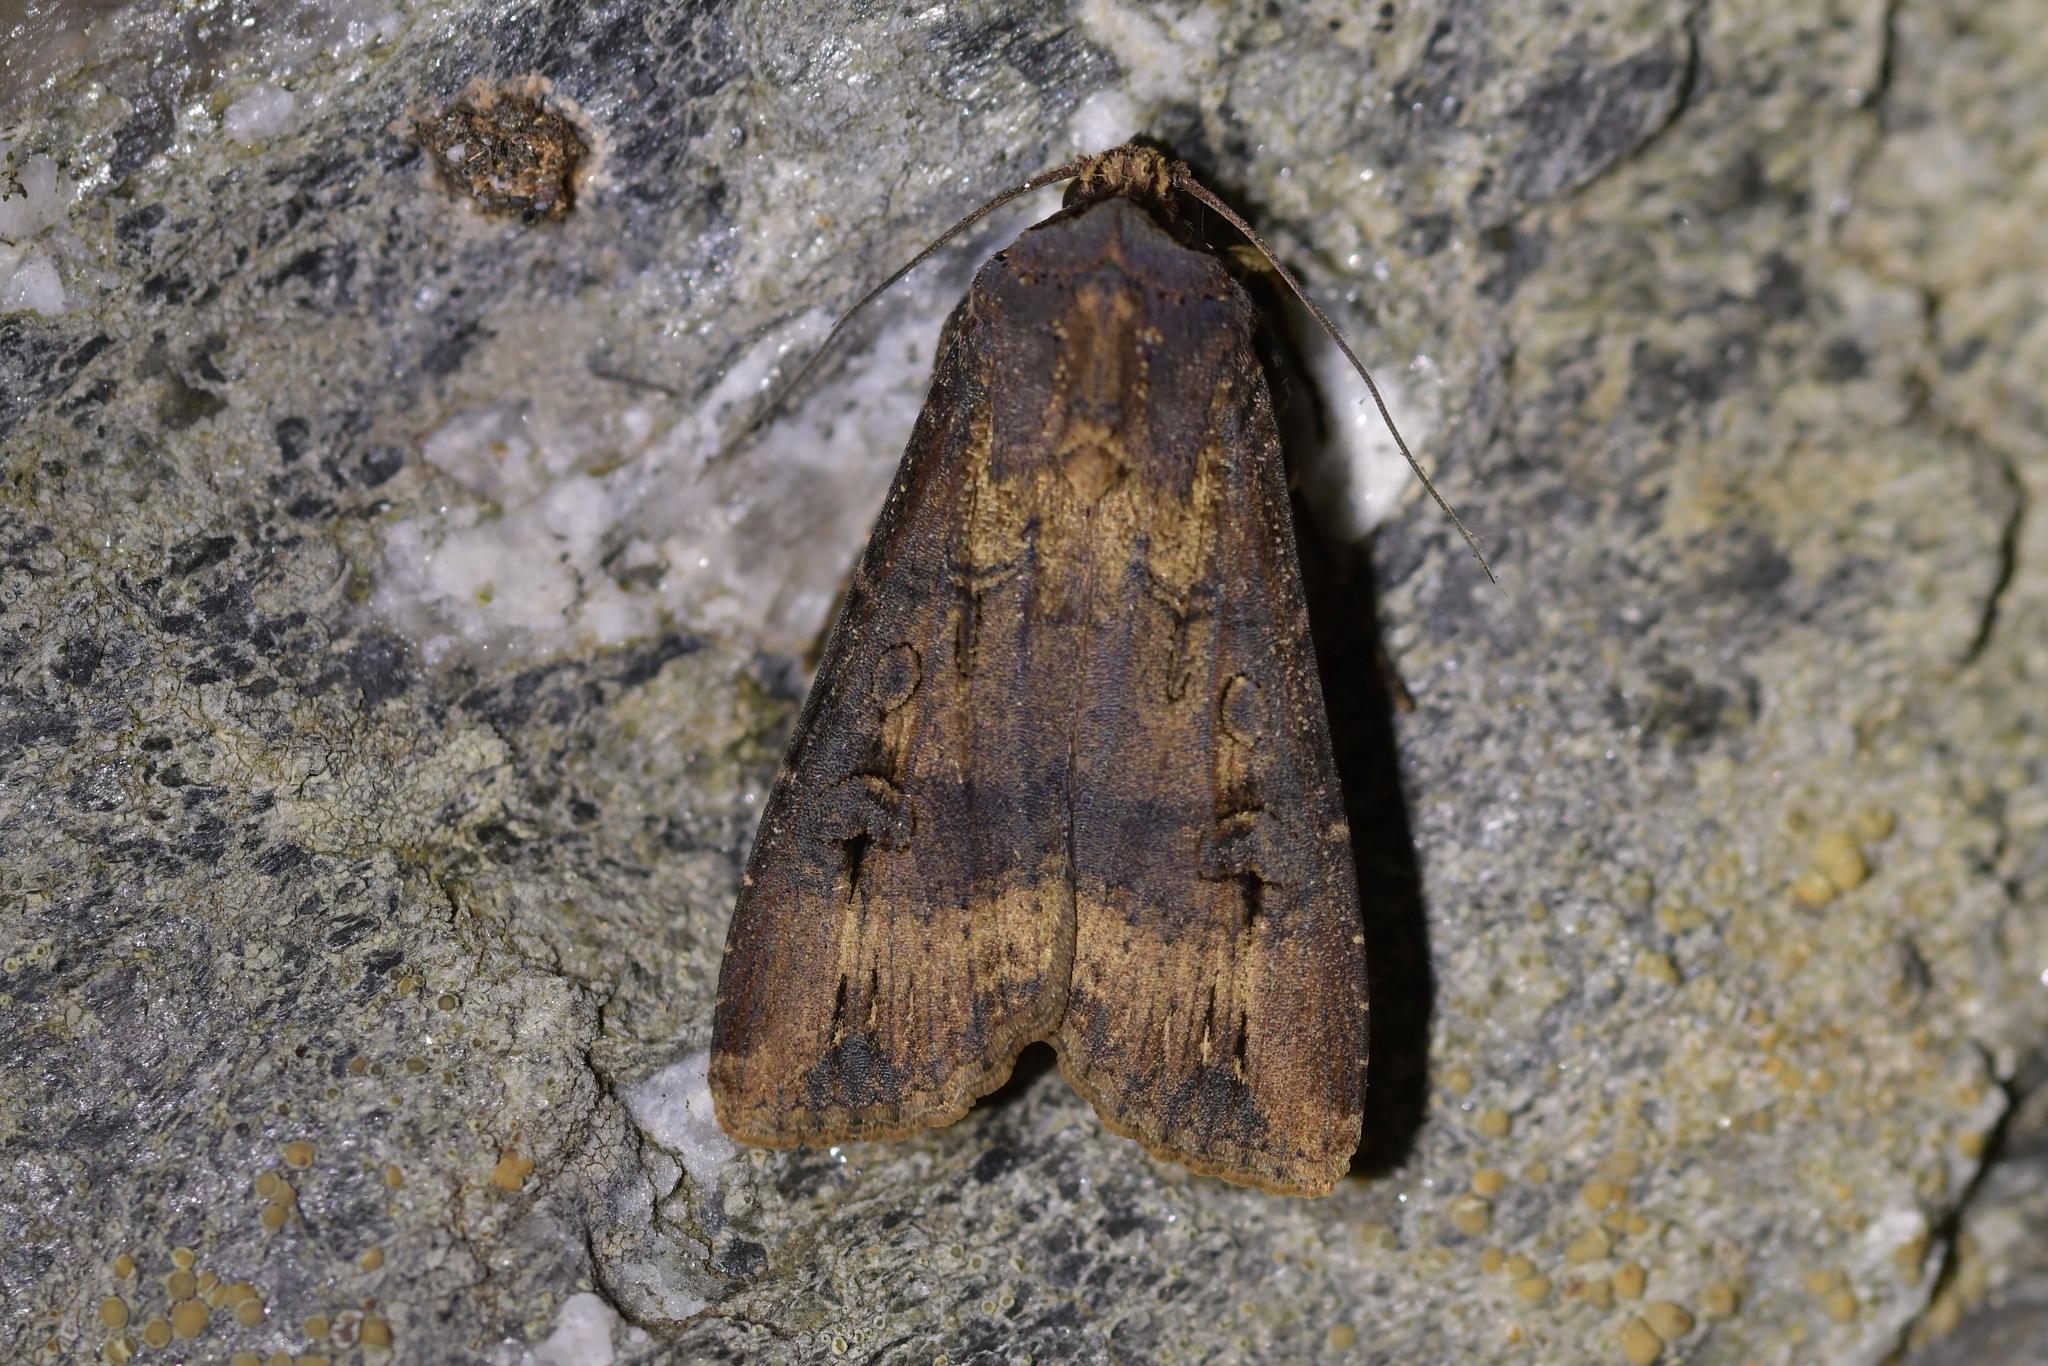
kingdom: Animalia
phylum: Arthropoda
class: Insecta
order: Lepidoptera
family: Noctuidae
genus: Agrotis
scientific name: Agrotis ipsilon
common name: Dark sword-grass
